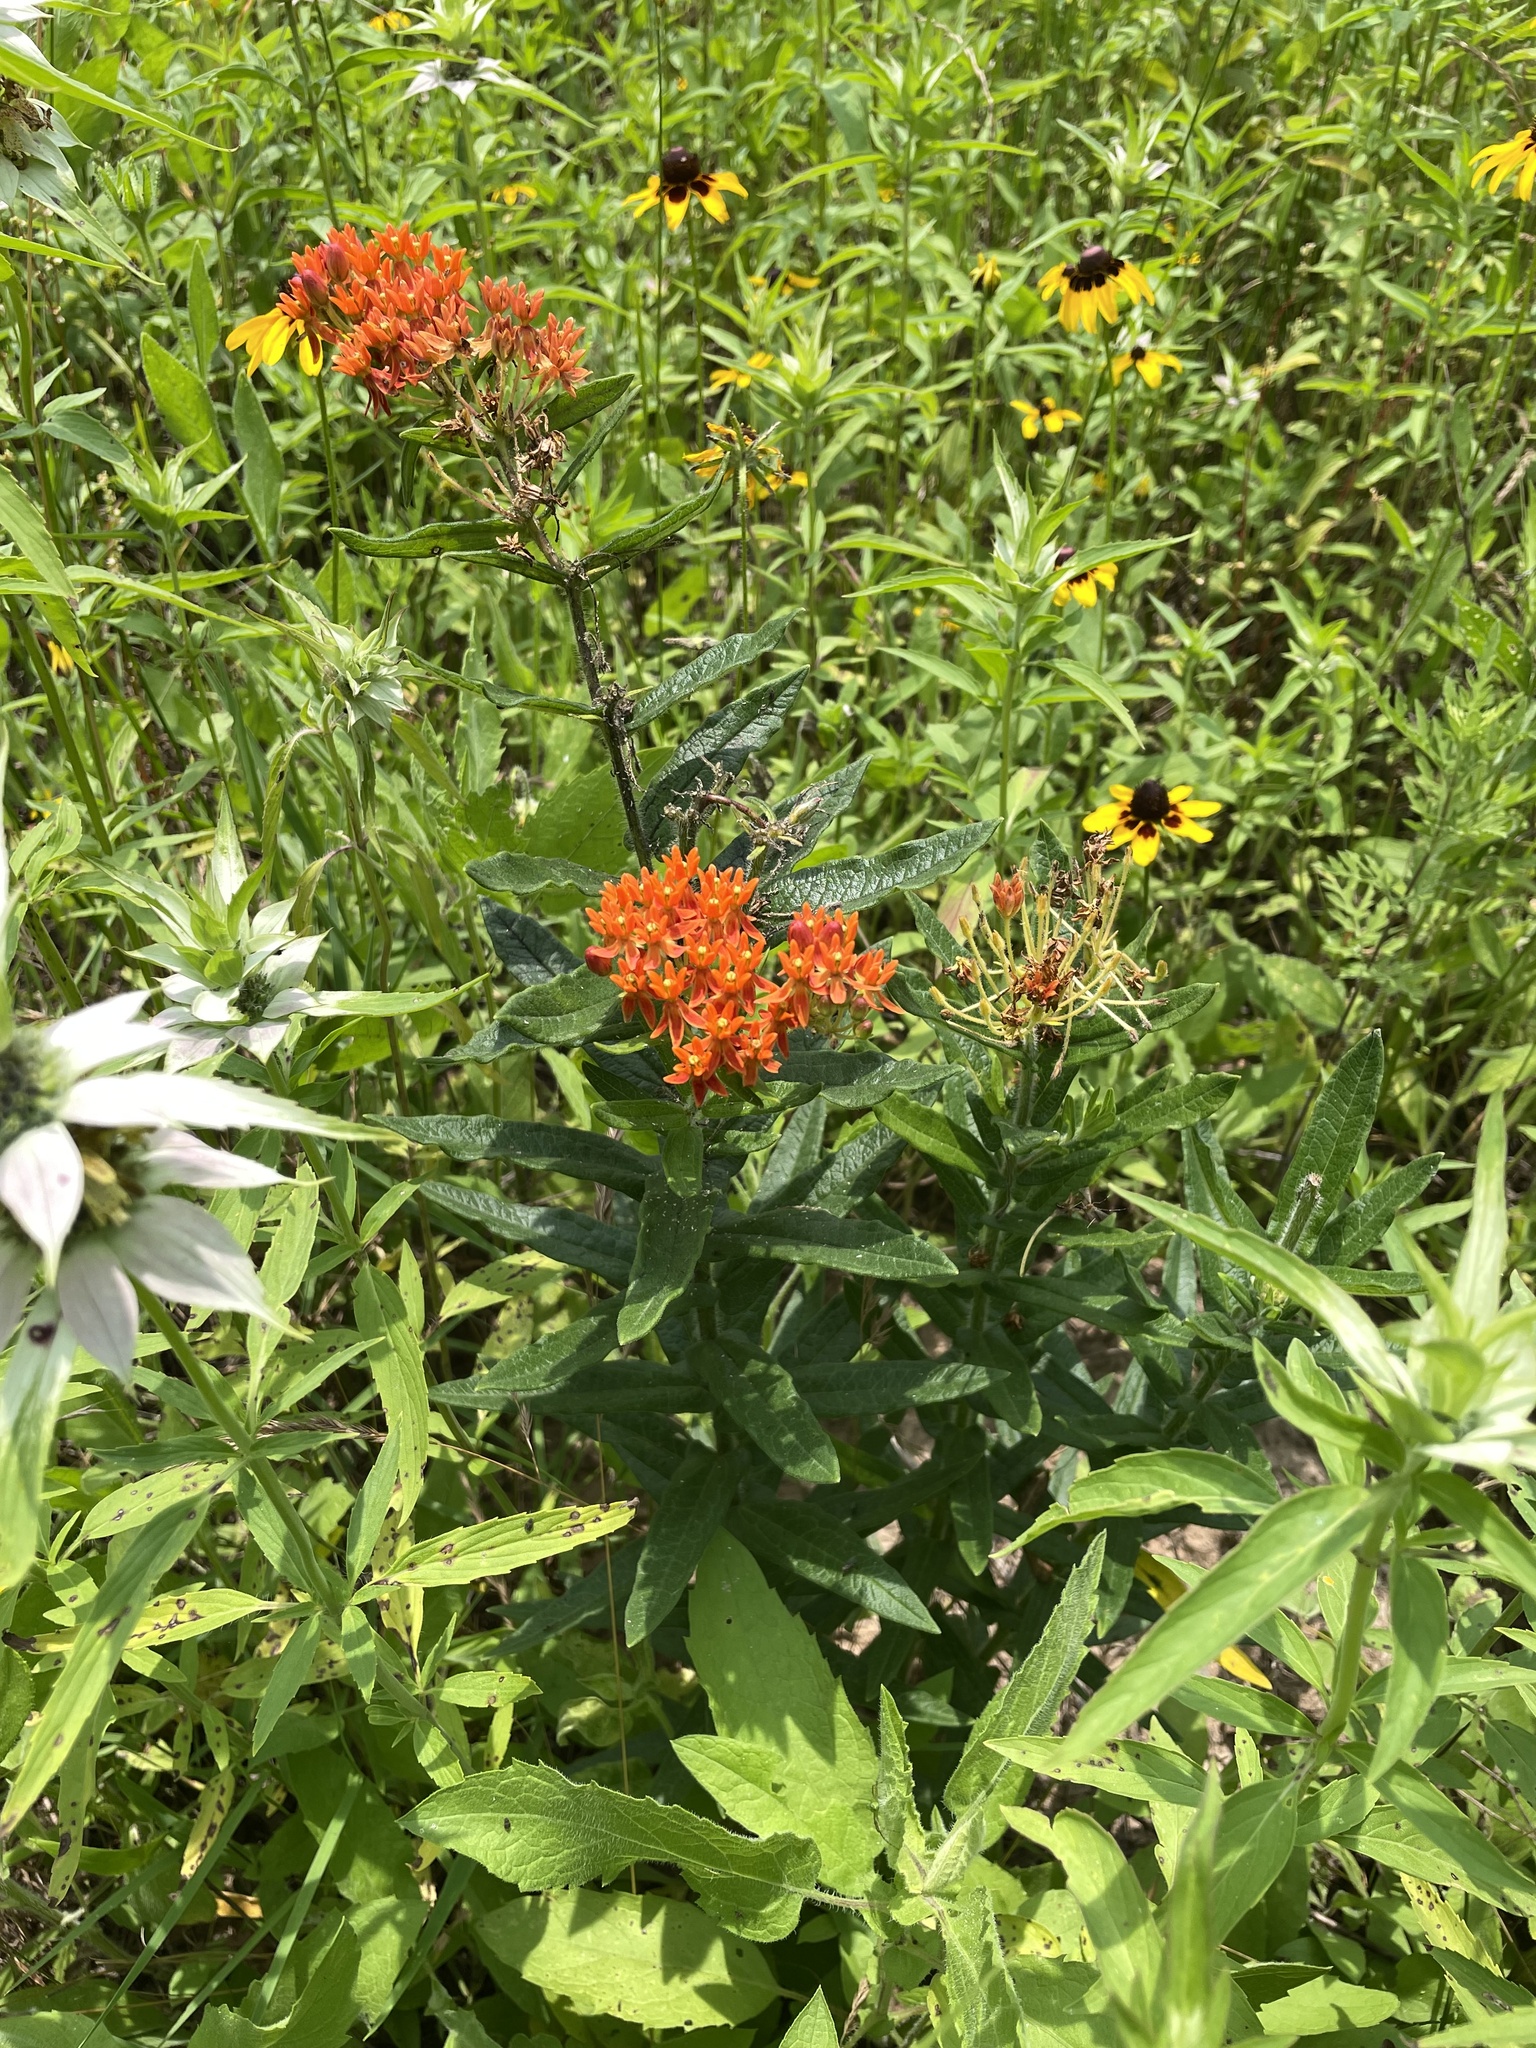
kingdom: Plantae
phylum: Tracheophyta
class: Magnoliopsida
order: Gentianales
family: Apocynaceae
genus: Asclepias
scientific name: Asclepias tuberosa
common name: Butterfly milkweed
